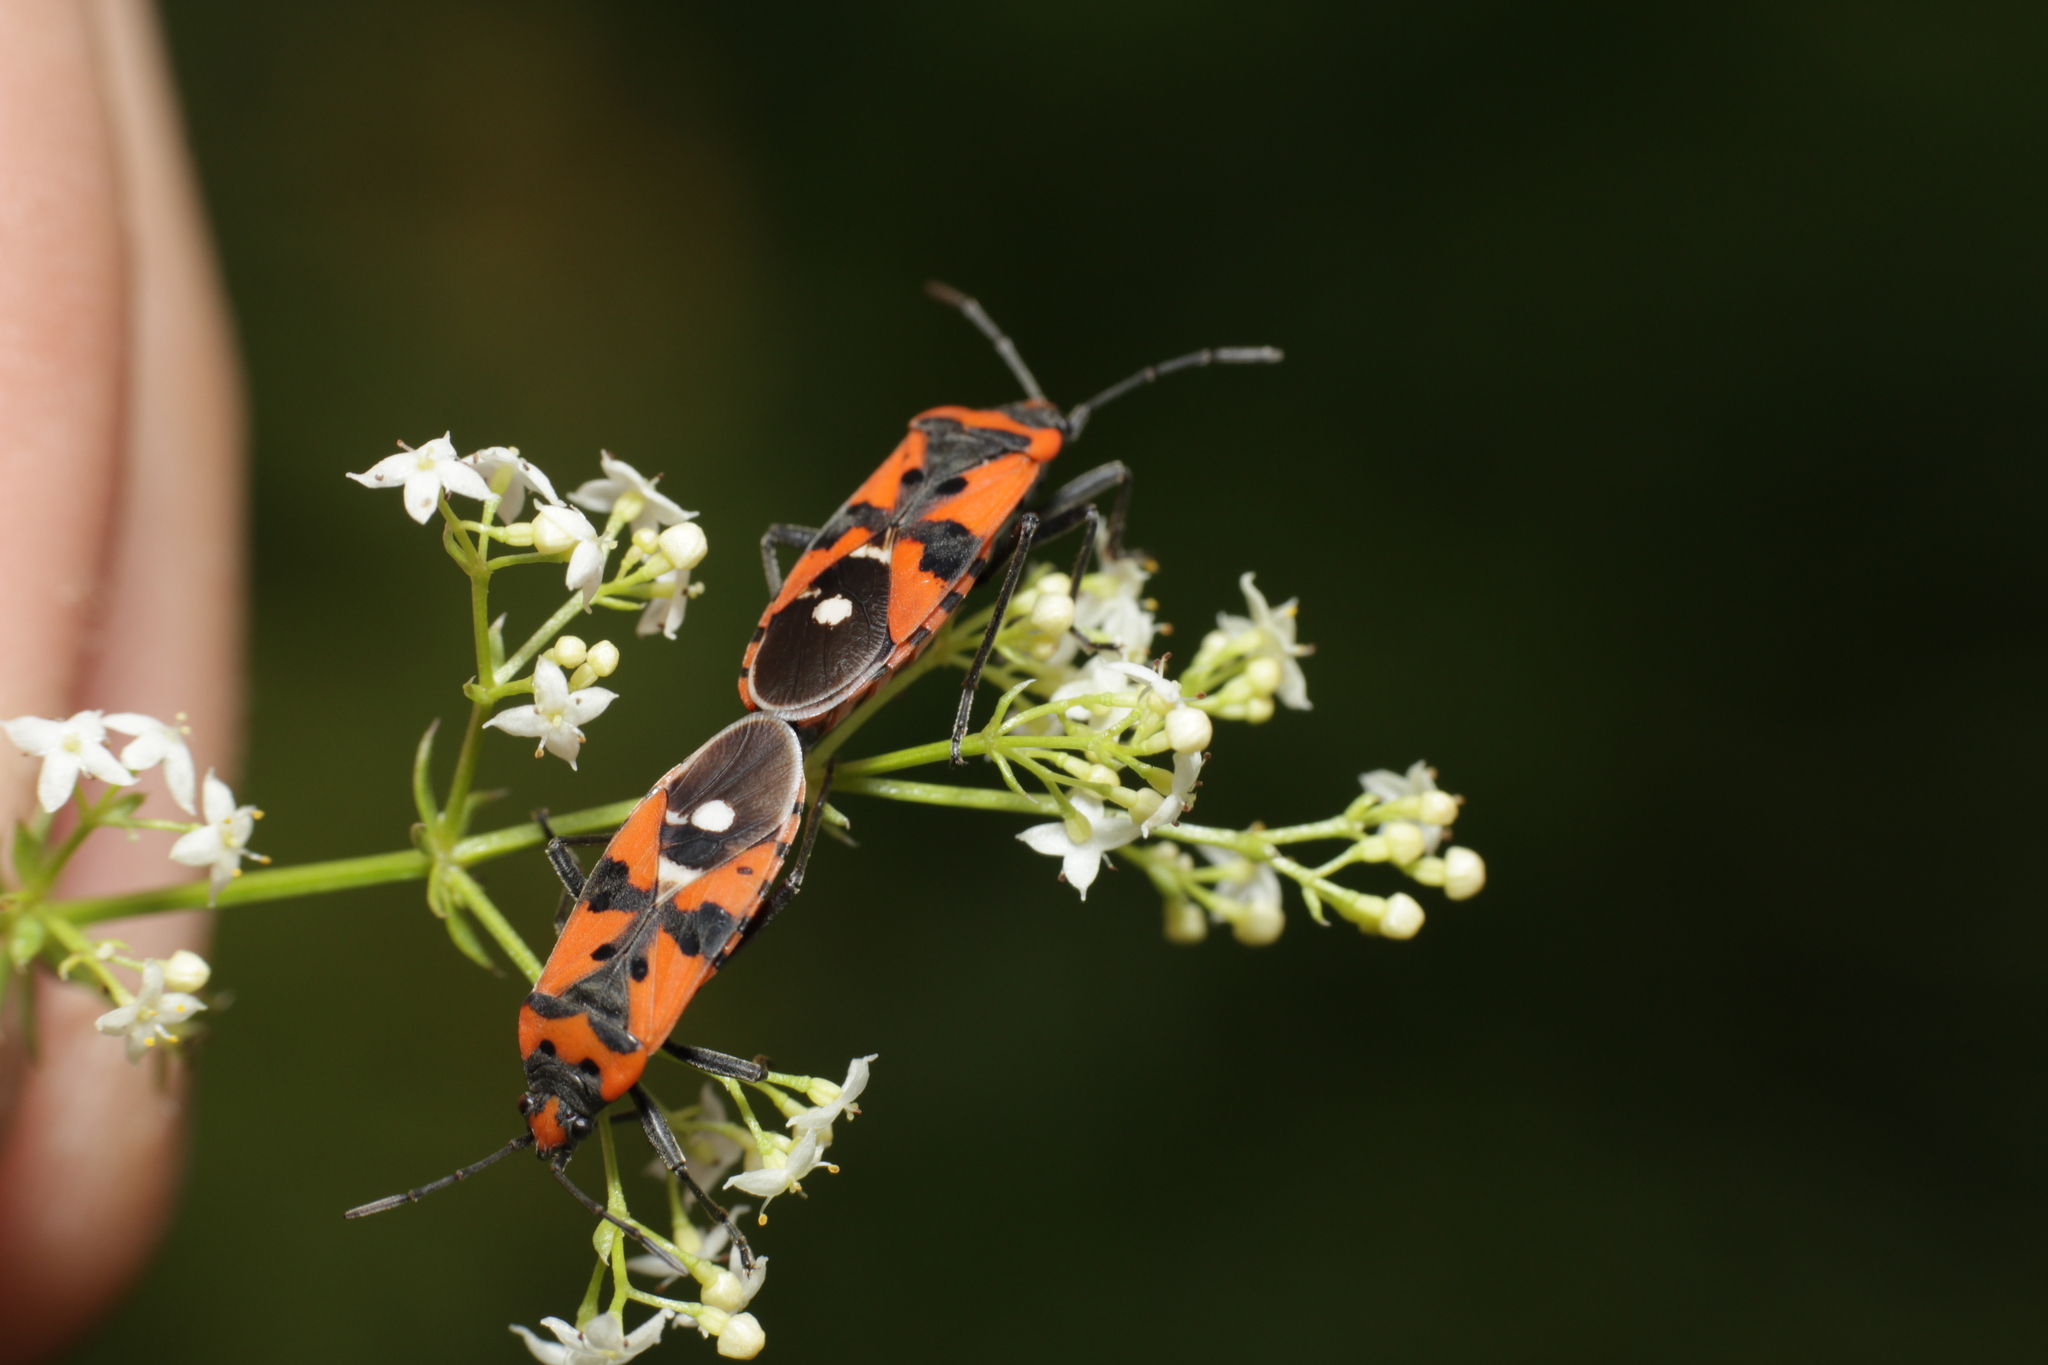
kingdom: Animalia
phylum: Arthropoda
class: Insecta
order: Hemiptera
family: Lygaeidae
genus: Lygaeus
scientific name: Lygaeus equestris
